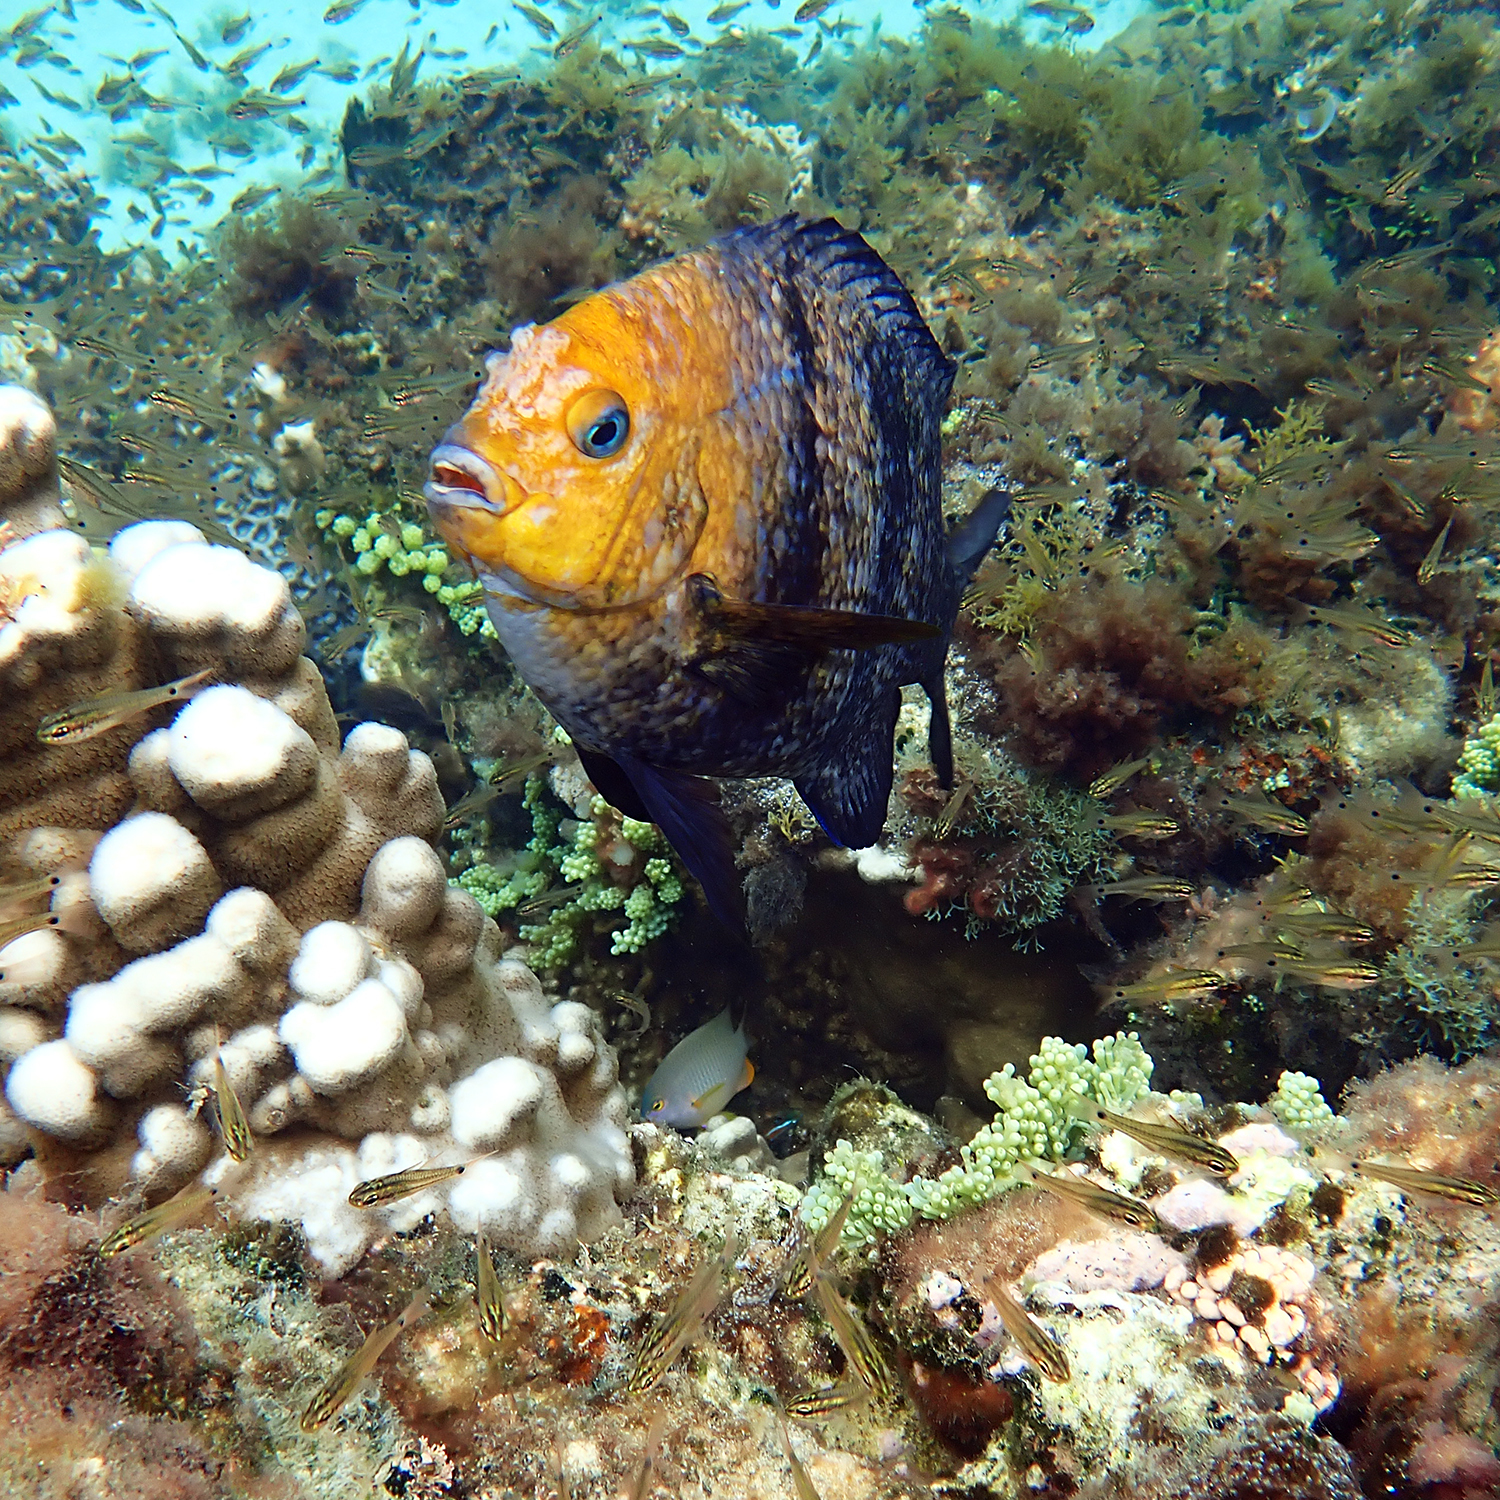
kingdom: Animalia
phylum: Chordata
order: Perciformes
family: Pomacentridae
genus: Parma
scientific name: Parma polylepis
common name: Banded parma
